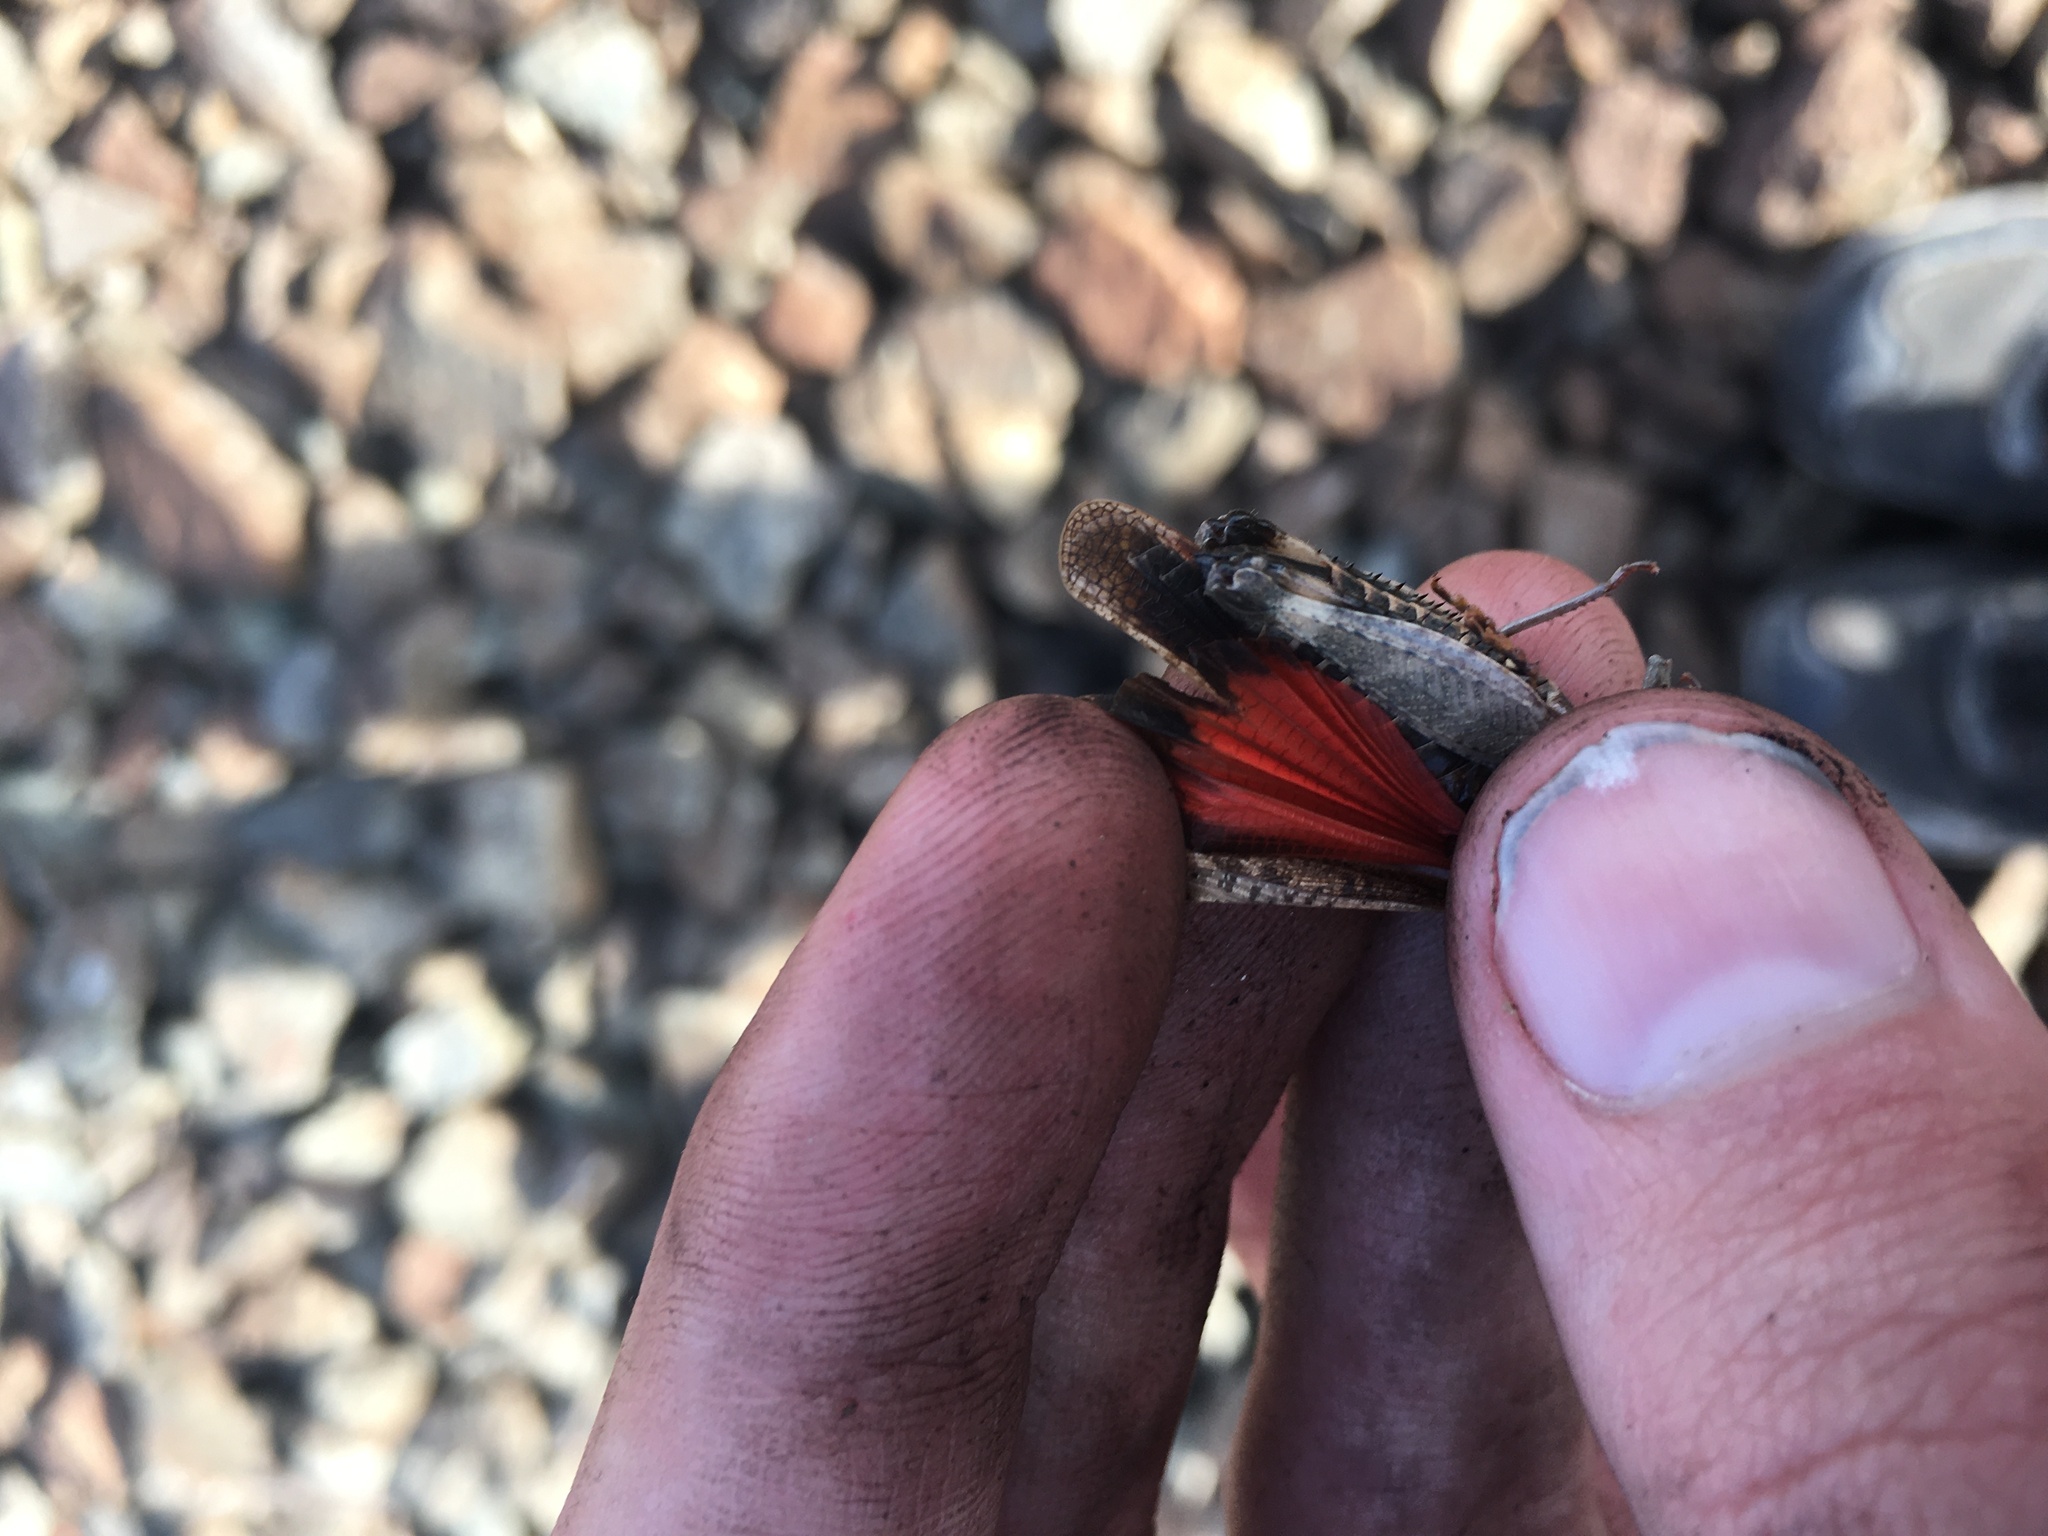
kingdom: Animalia
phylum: Arthropoda
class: Insecta
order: Orthoptera
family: Acrididae
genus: Arphia
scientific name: Arphia pseudo-nietana
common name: Red-winged grasshopper
